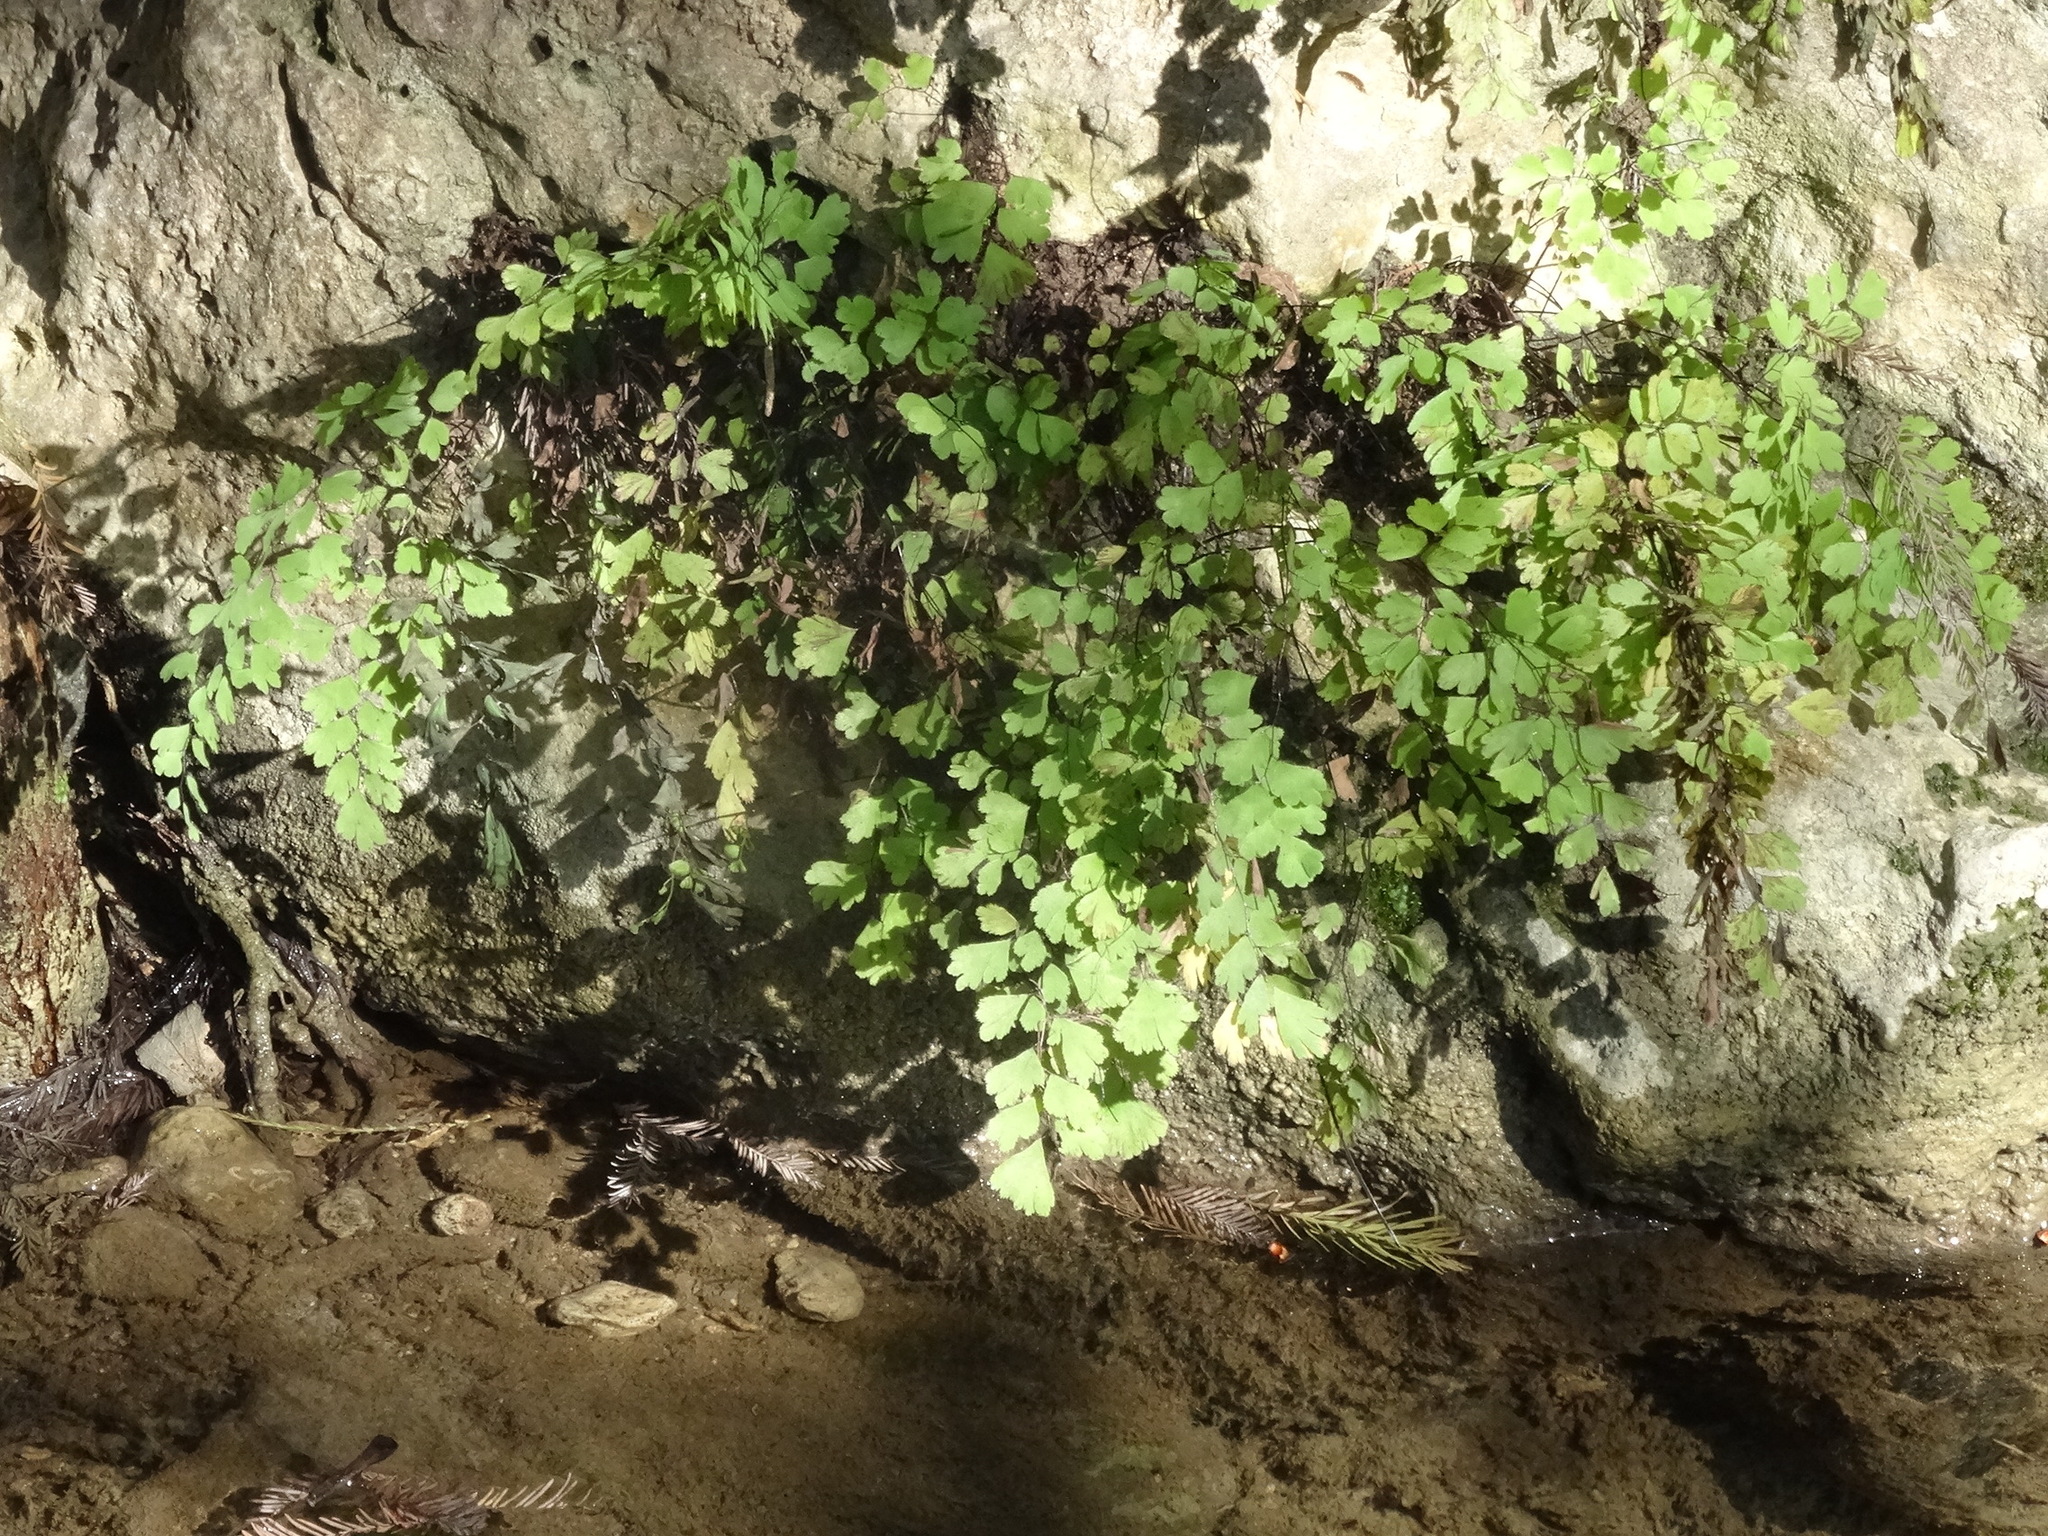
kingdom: Plantae
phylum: Tracheophyta
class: Polypodiopsida
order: Polypodiales
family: Pteridaceae
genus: Adiantum
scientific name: Adiantum capillus-veneris
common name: Maidenhair fern
